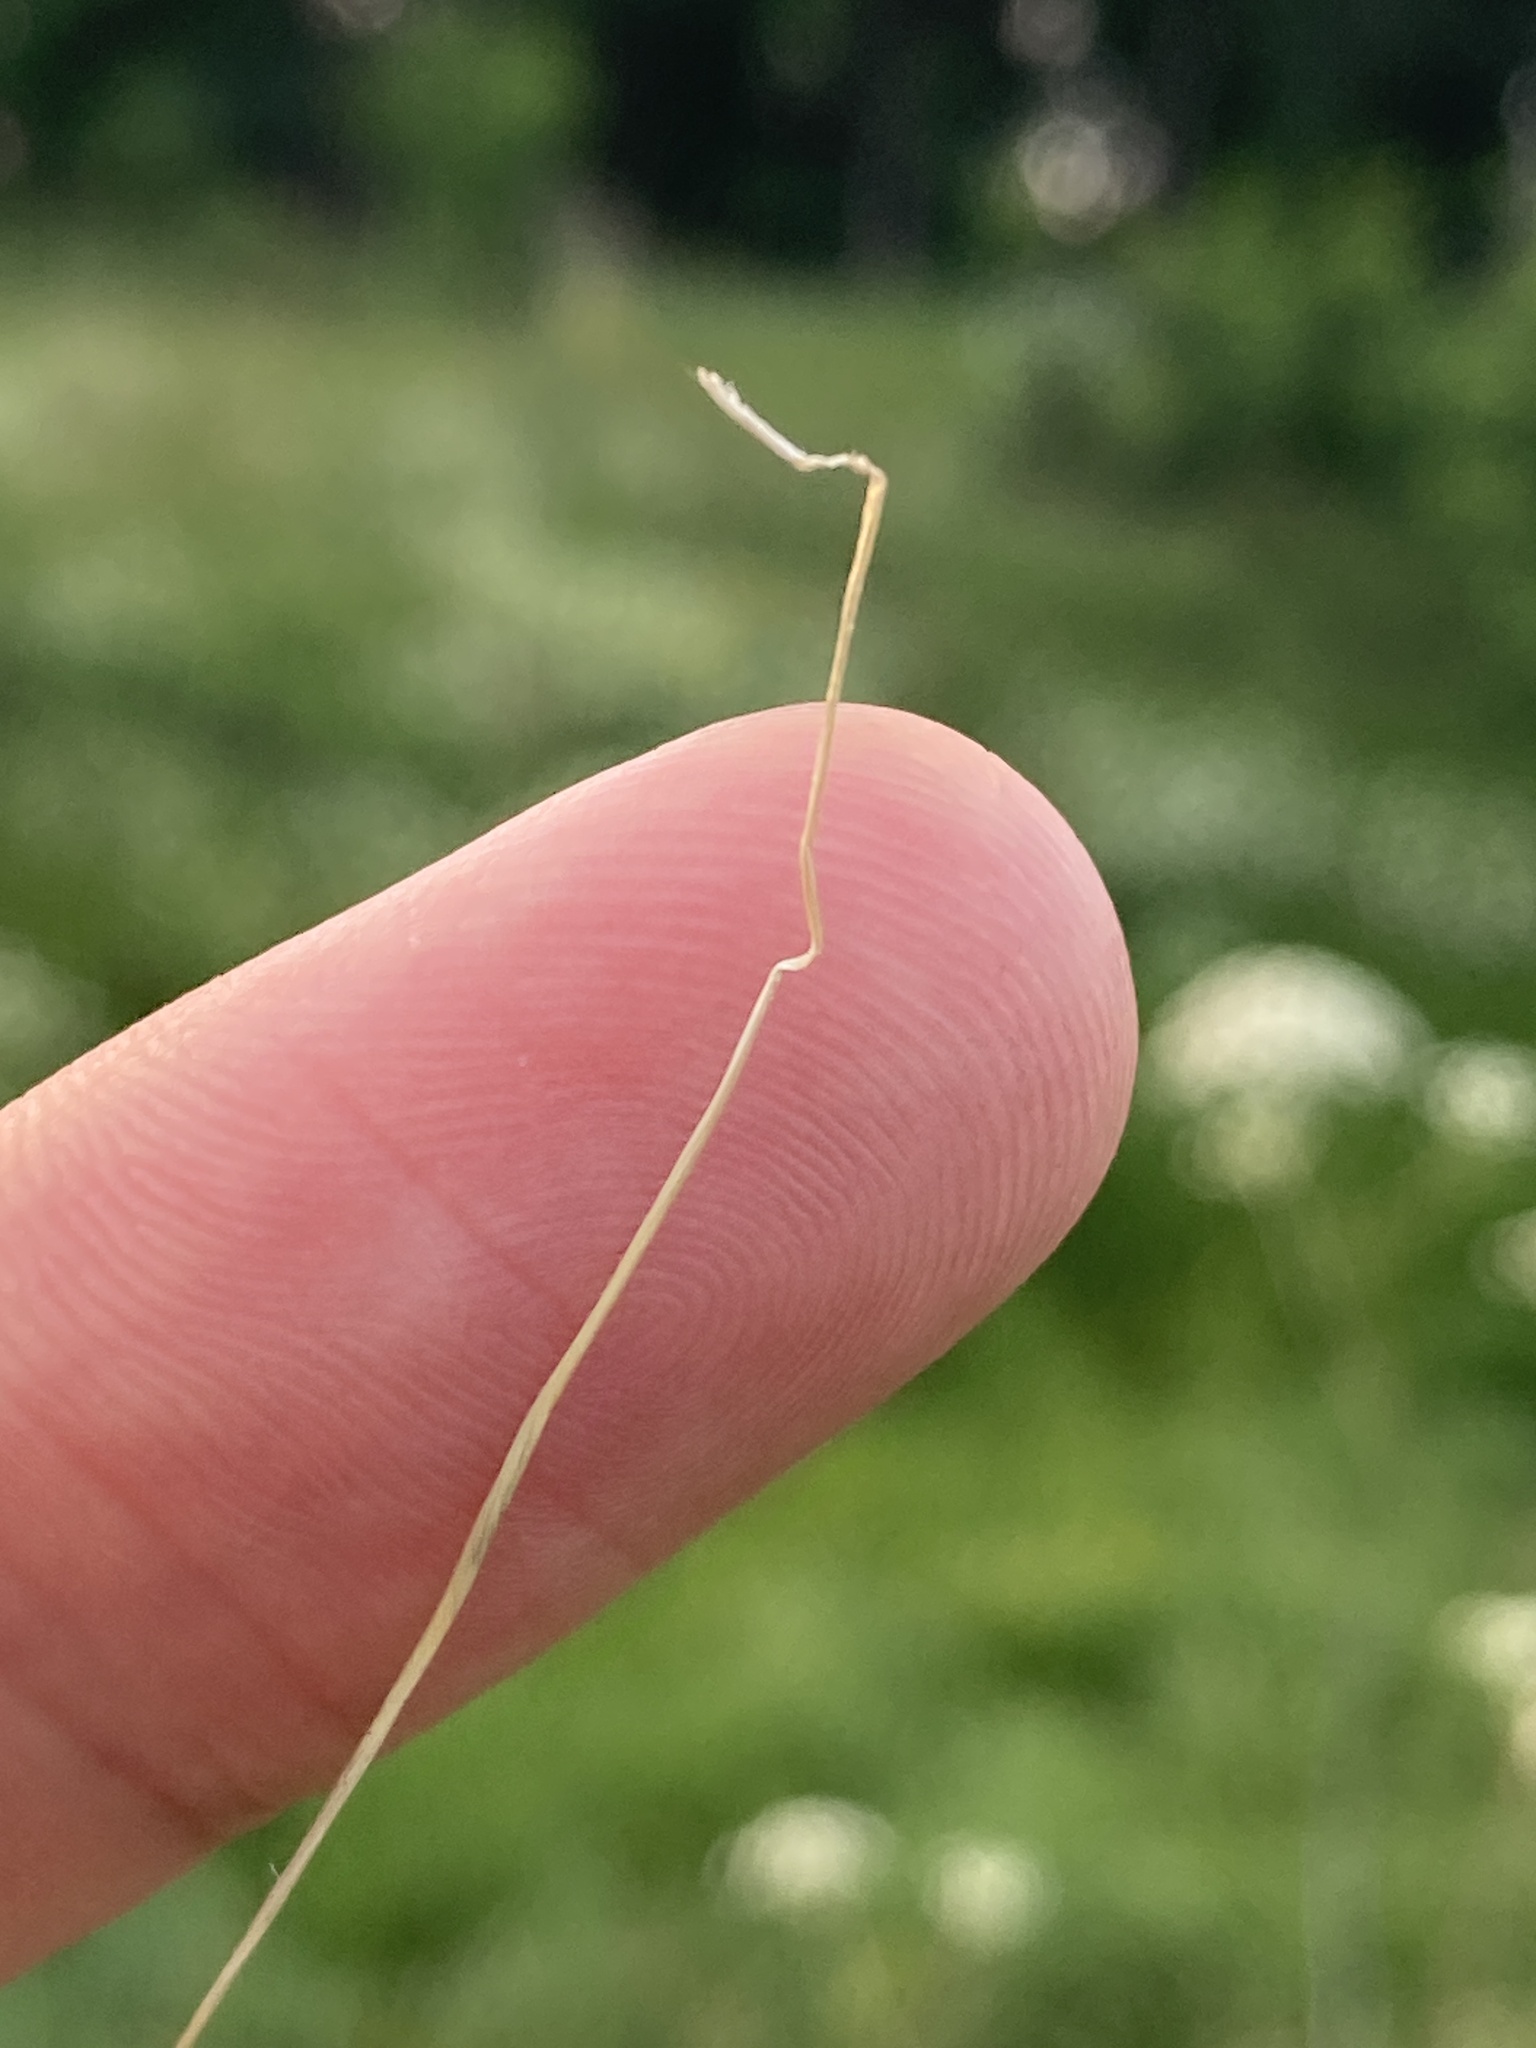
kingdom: Plantae
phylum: Tracheophyta
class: Liliopsida
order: Poales
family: Poaceae
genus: Stipa
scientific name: Stipa pennata
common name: European feather grass
